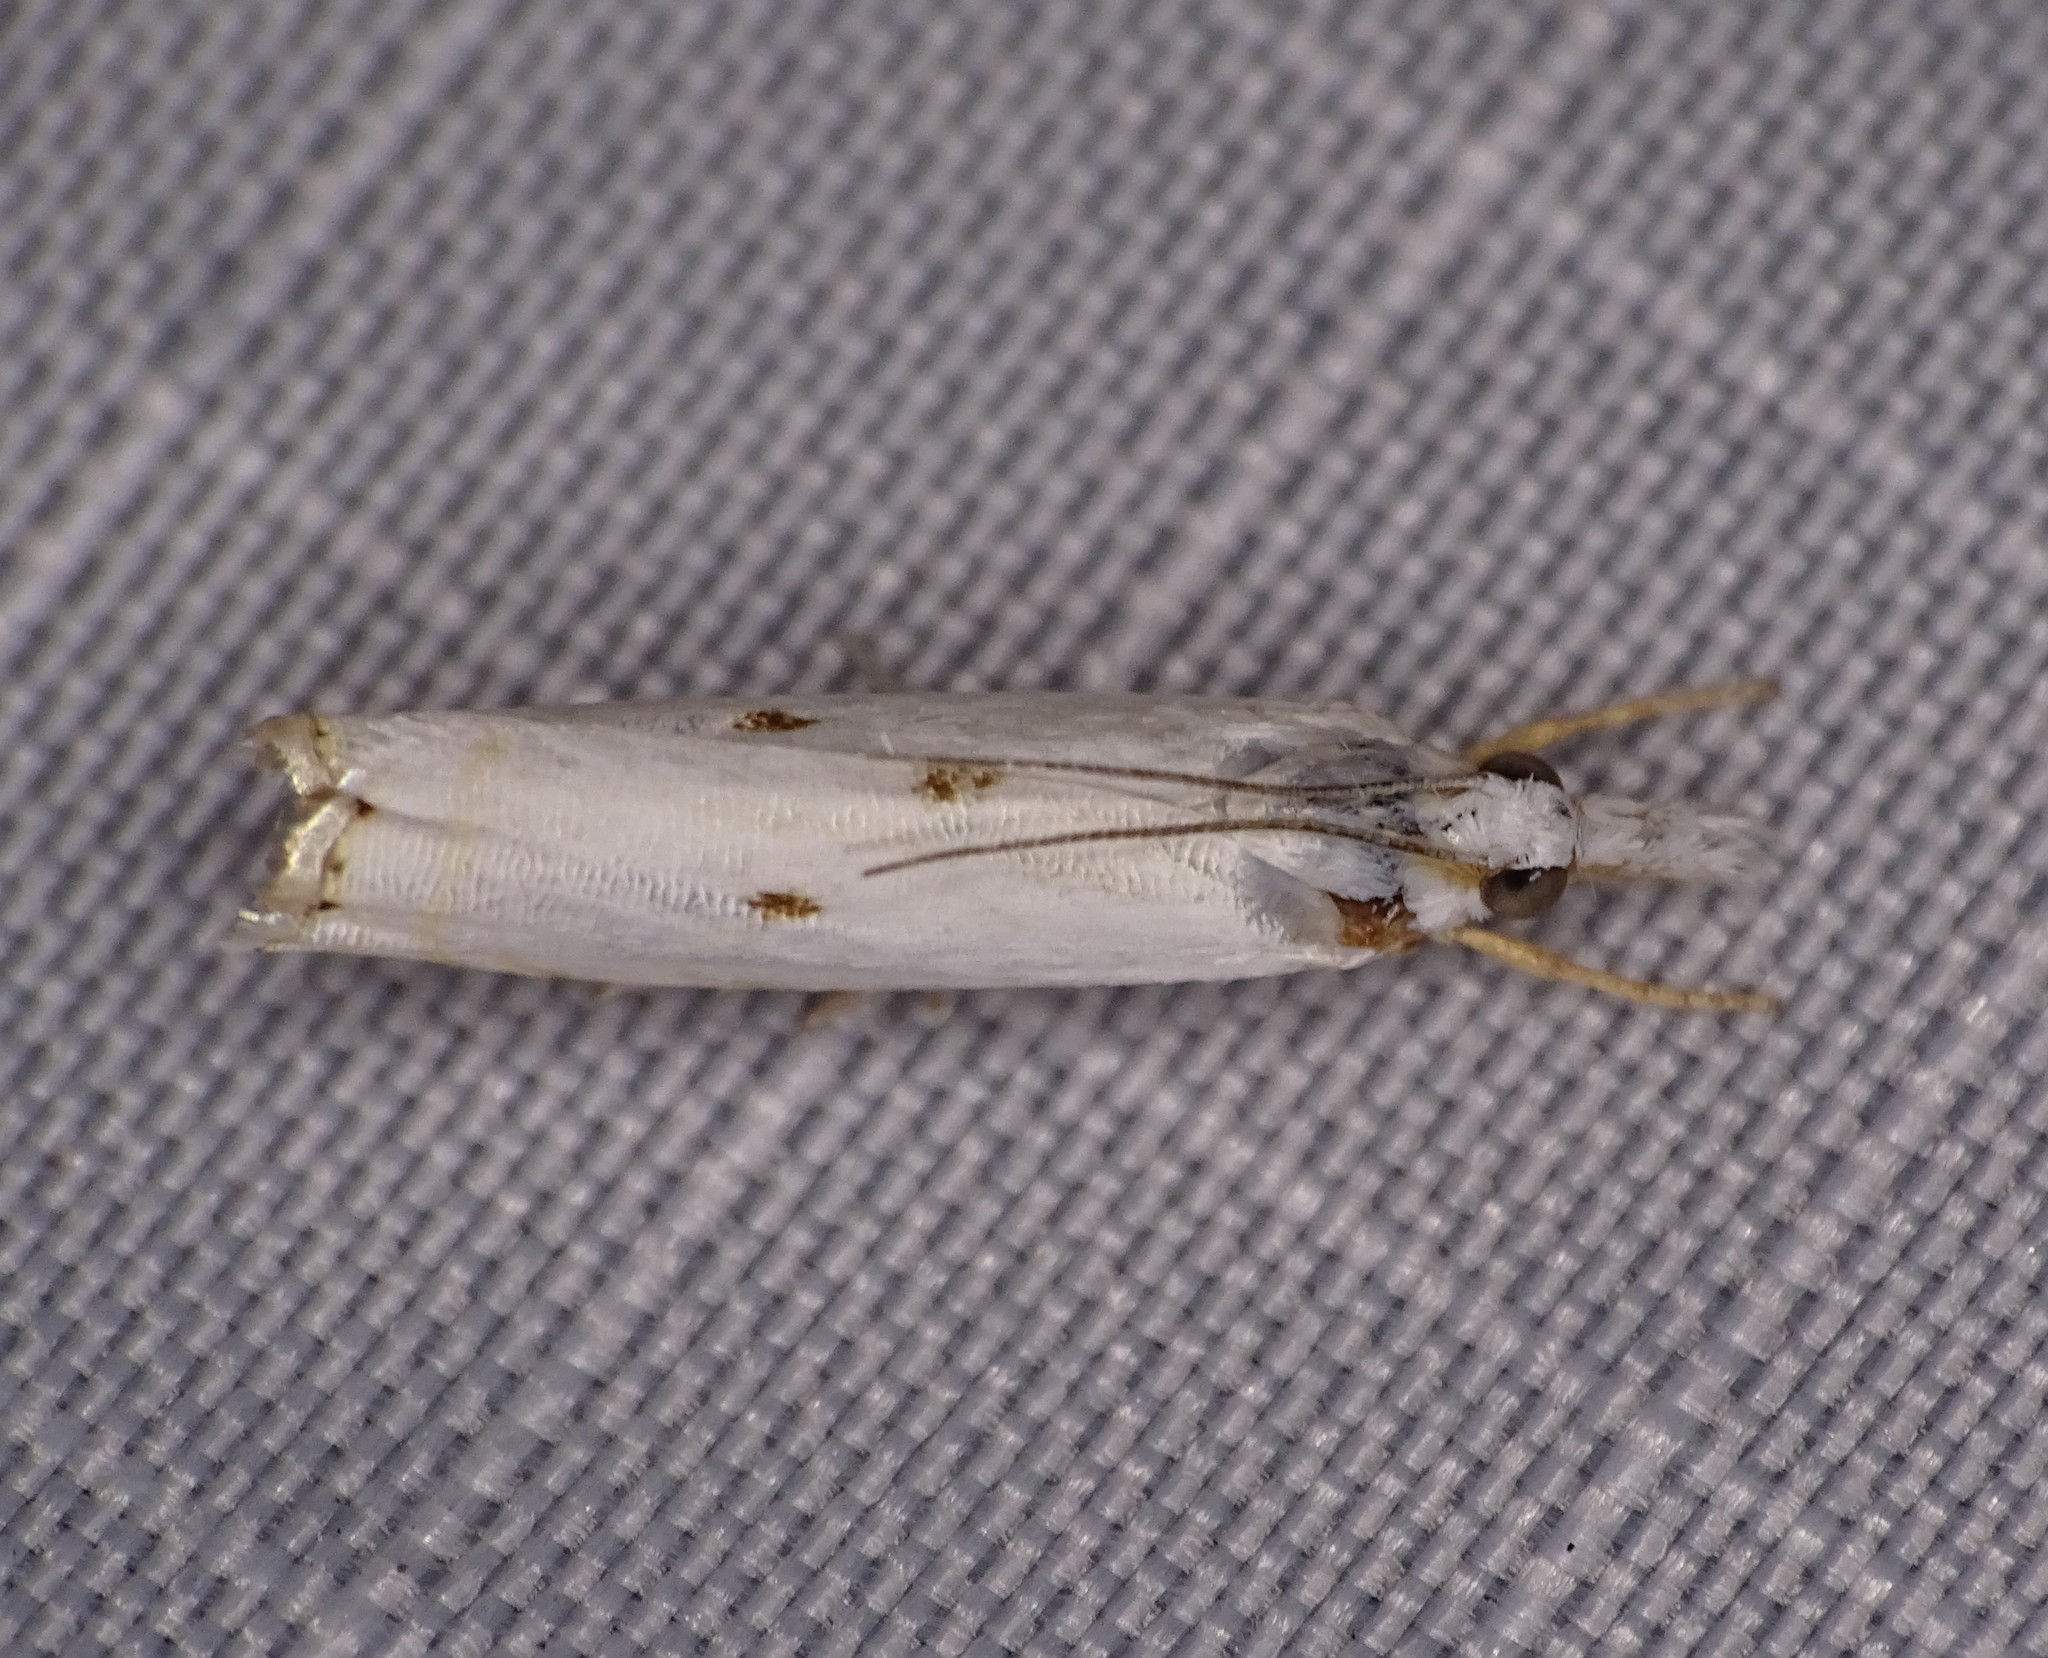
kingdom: Animalia
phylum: Arthropoda
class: Insecta
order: Lepidoptera
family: Crambidae
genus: Microcrambus
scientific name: Microcrambus biguttellus
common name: Gold-stripe grass-veneer moth
